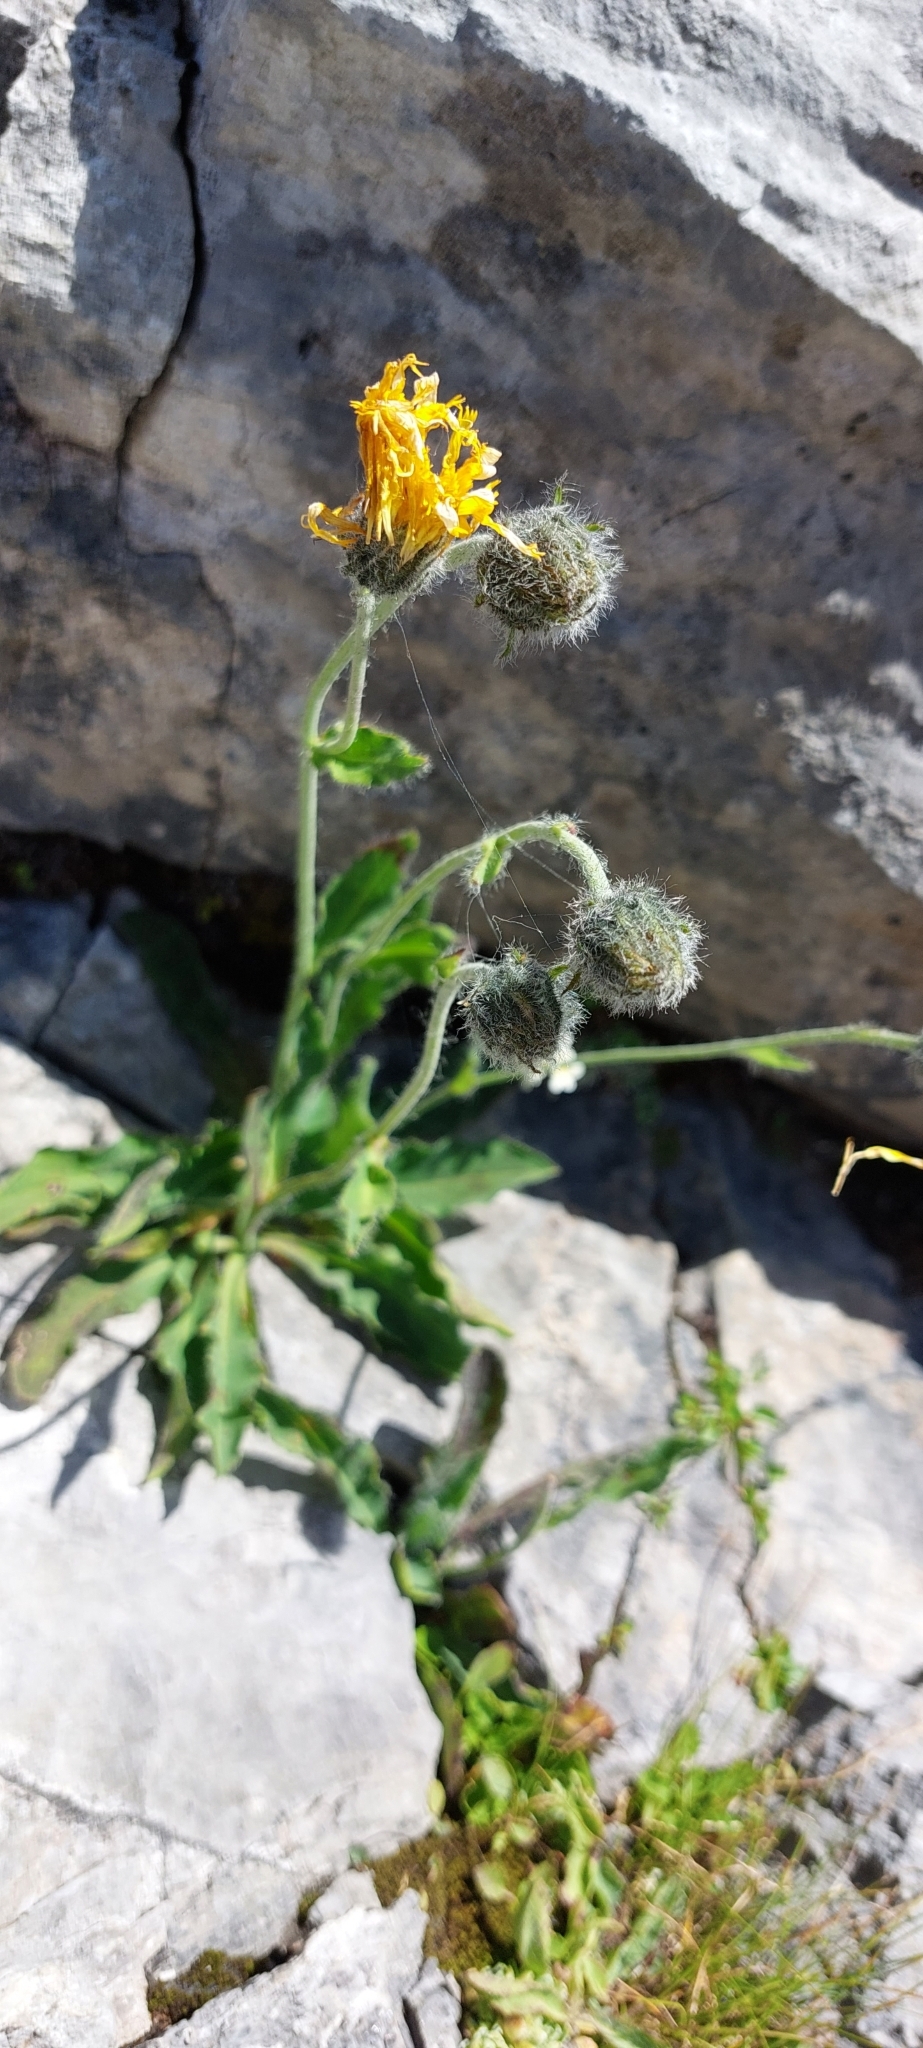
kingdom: Plantae
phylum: Tracheophyta
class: Magnoliopsida
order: Asterales
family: Asteraceae
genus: Hieracium
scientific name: Hieracium villosum
